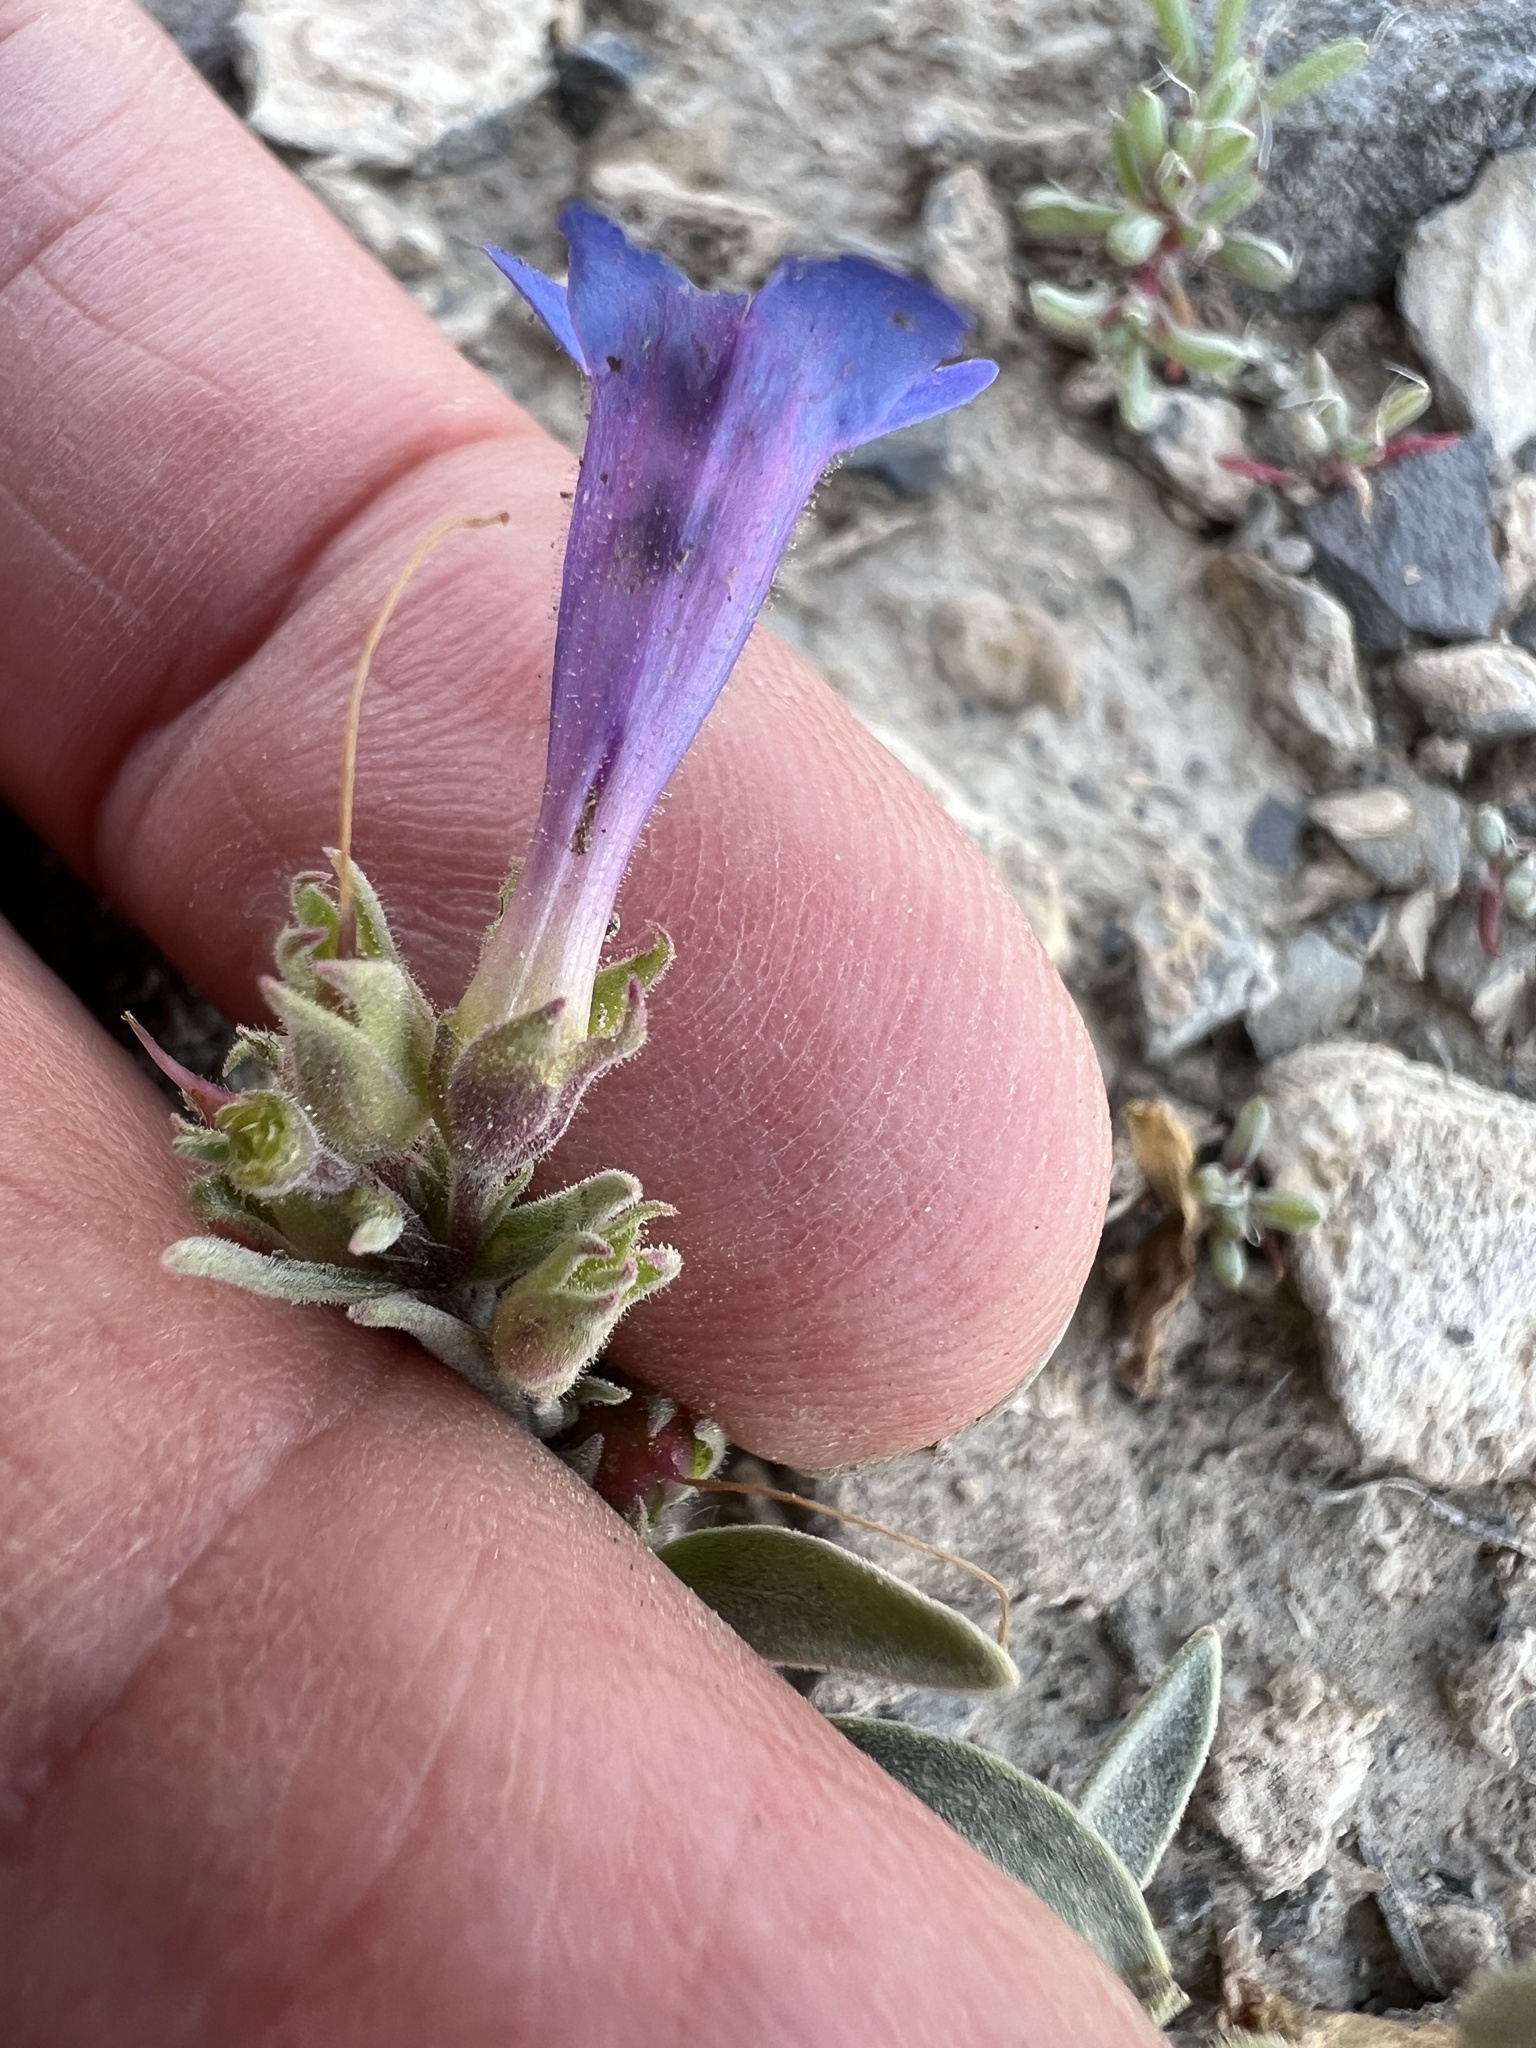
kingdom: Plantae
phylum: Tracheophyta
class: Magnoliopsida
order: Lamiales
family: Plantaginaceae
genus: Penstemon
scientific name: Penstemon pumilus
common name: Dwarf penstemon
